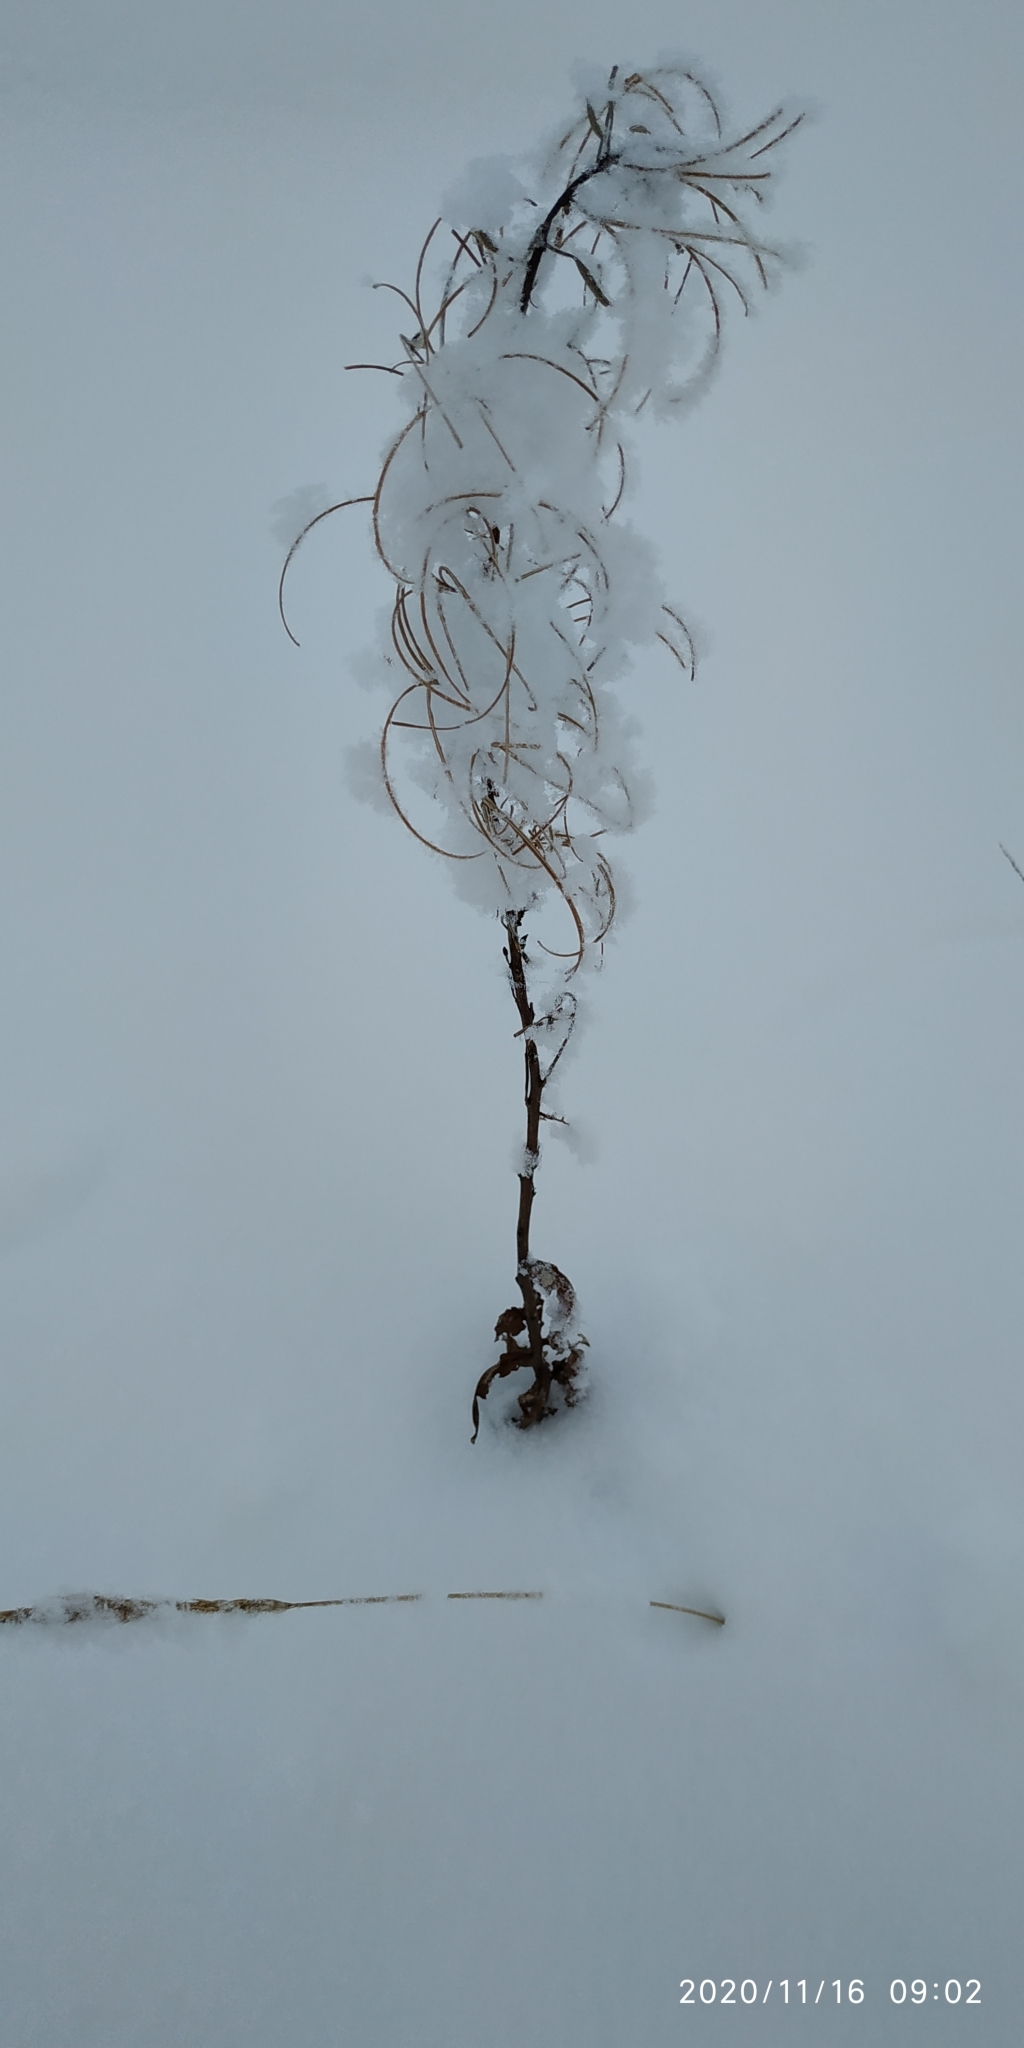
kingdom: Plantae
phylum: Tracheophyta
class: Magnoliopsida
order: Myrtales
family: Onagraceae
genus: Chamaenerion
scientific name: Chamaenerion angustifolium
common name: Fireweed
